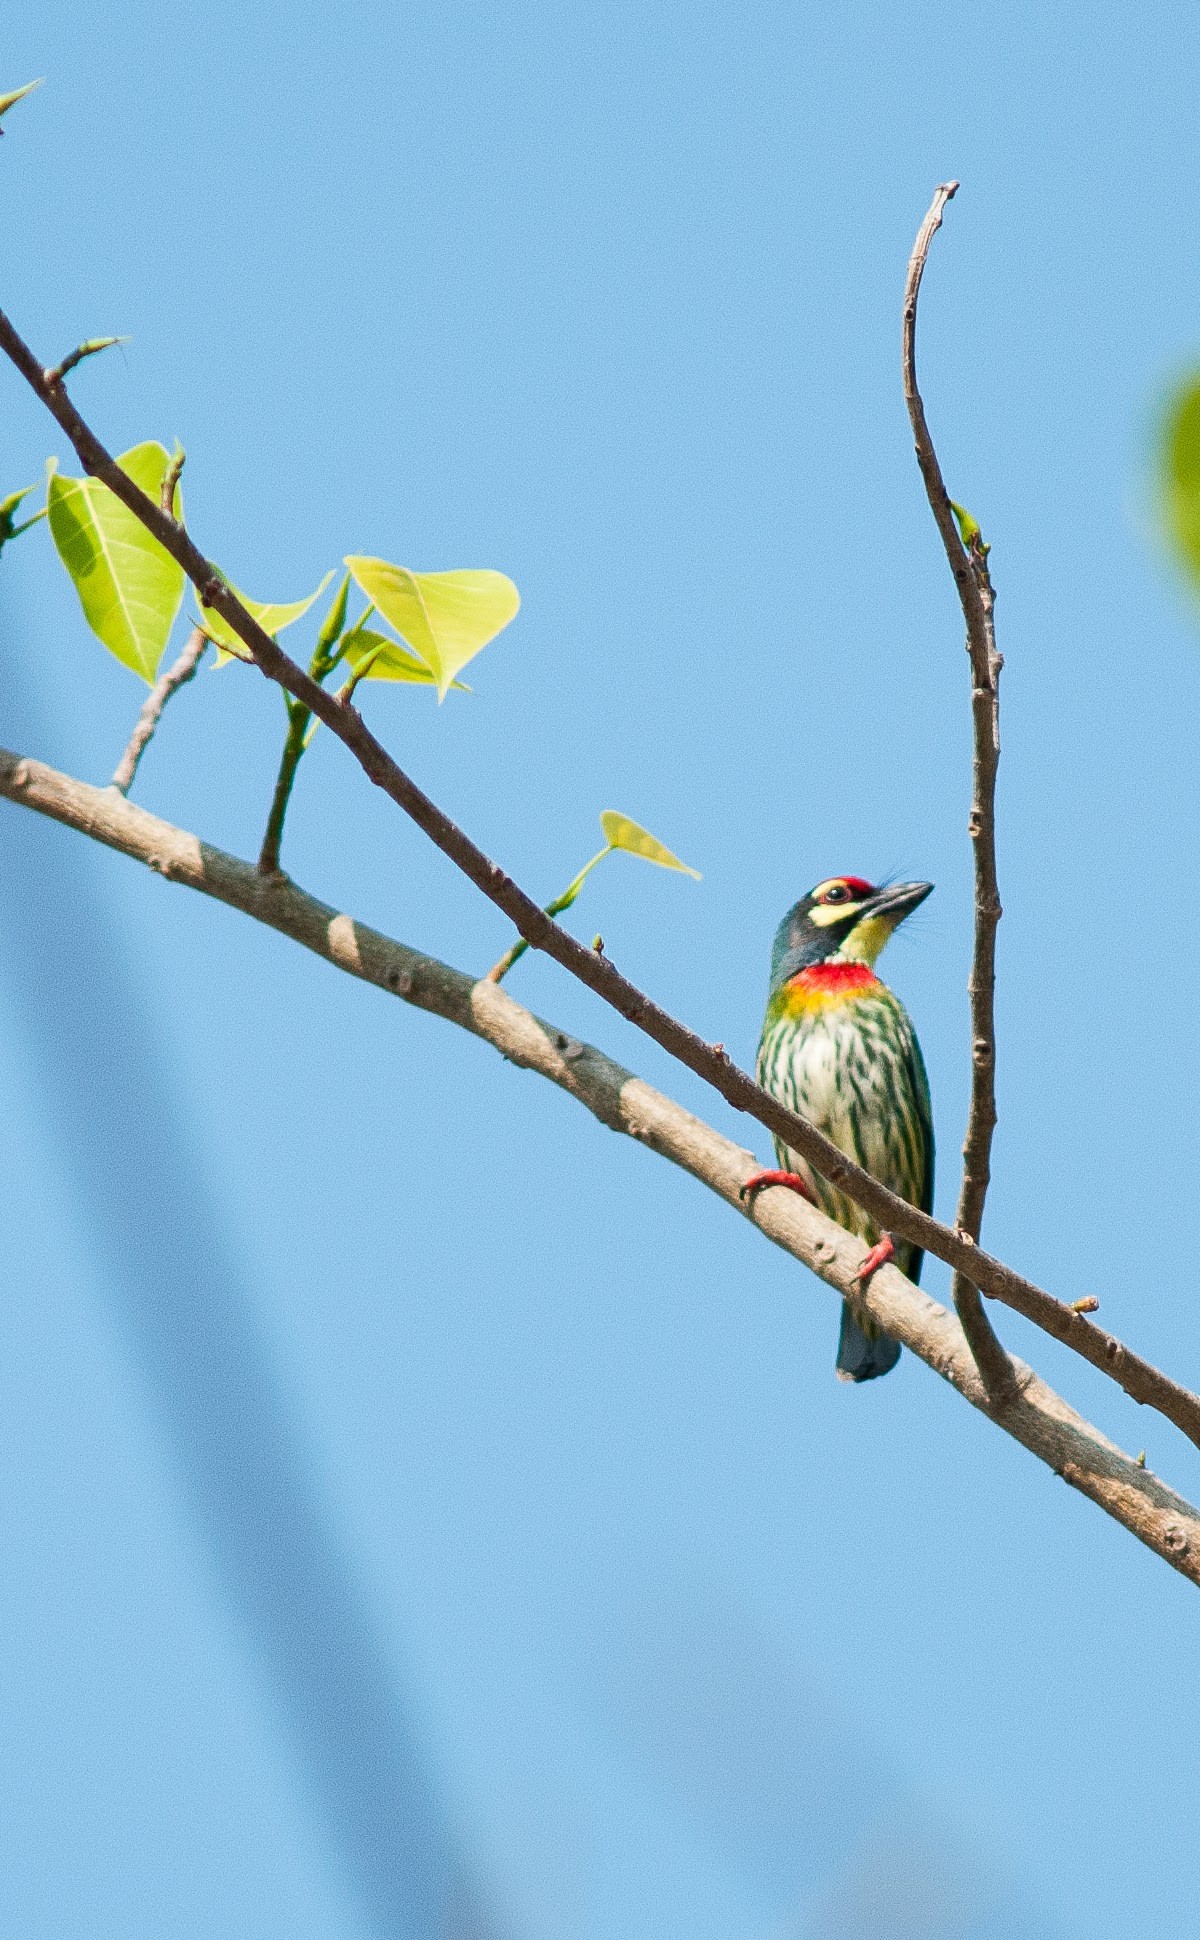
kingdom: Animalia
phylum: Chordata
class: Aves
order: Piciformes
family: Megalaimidae
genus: Psilopogon
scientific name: Psilopogon haemacephalus
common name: Coppersmith barbet
